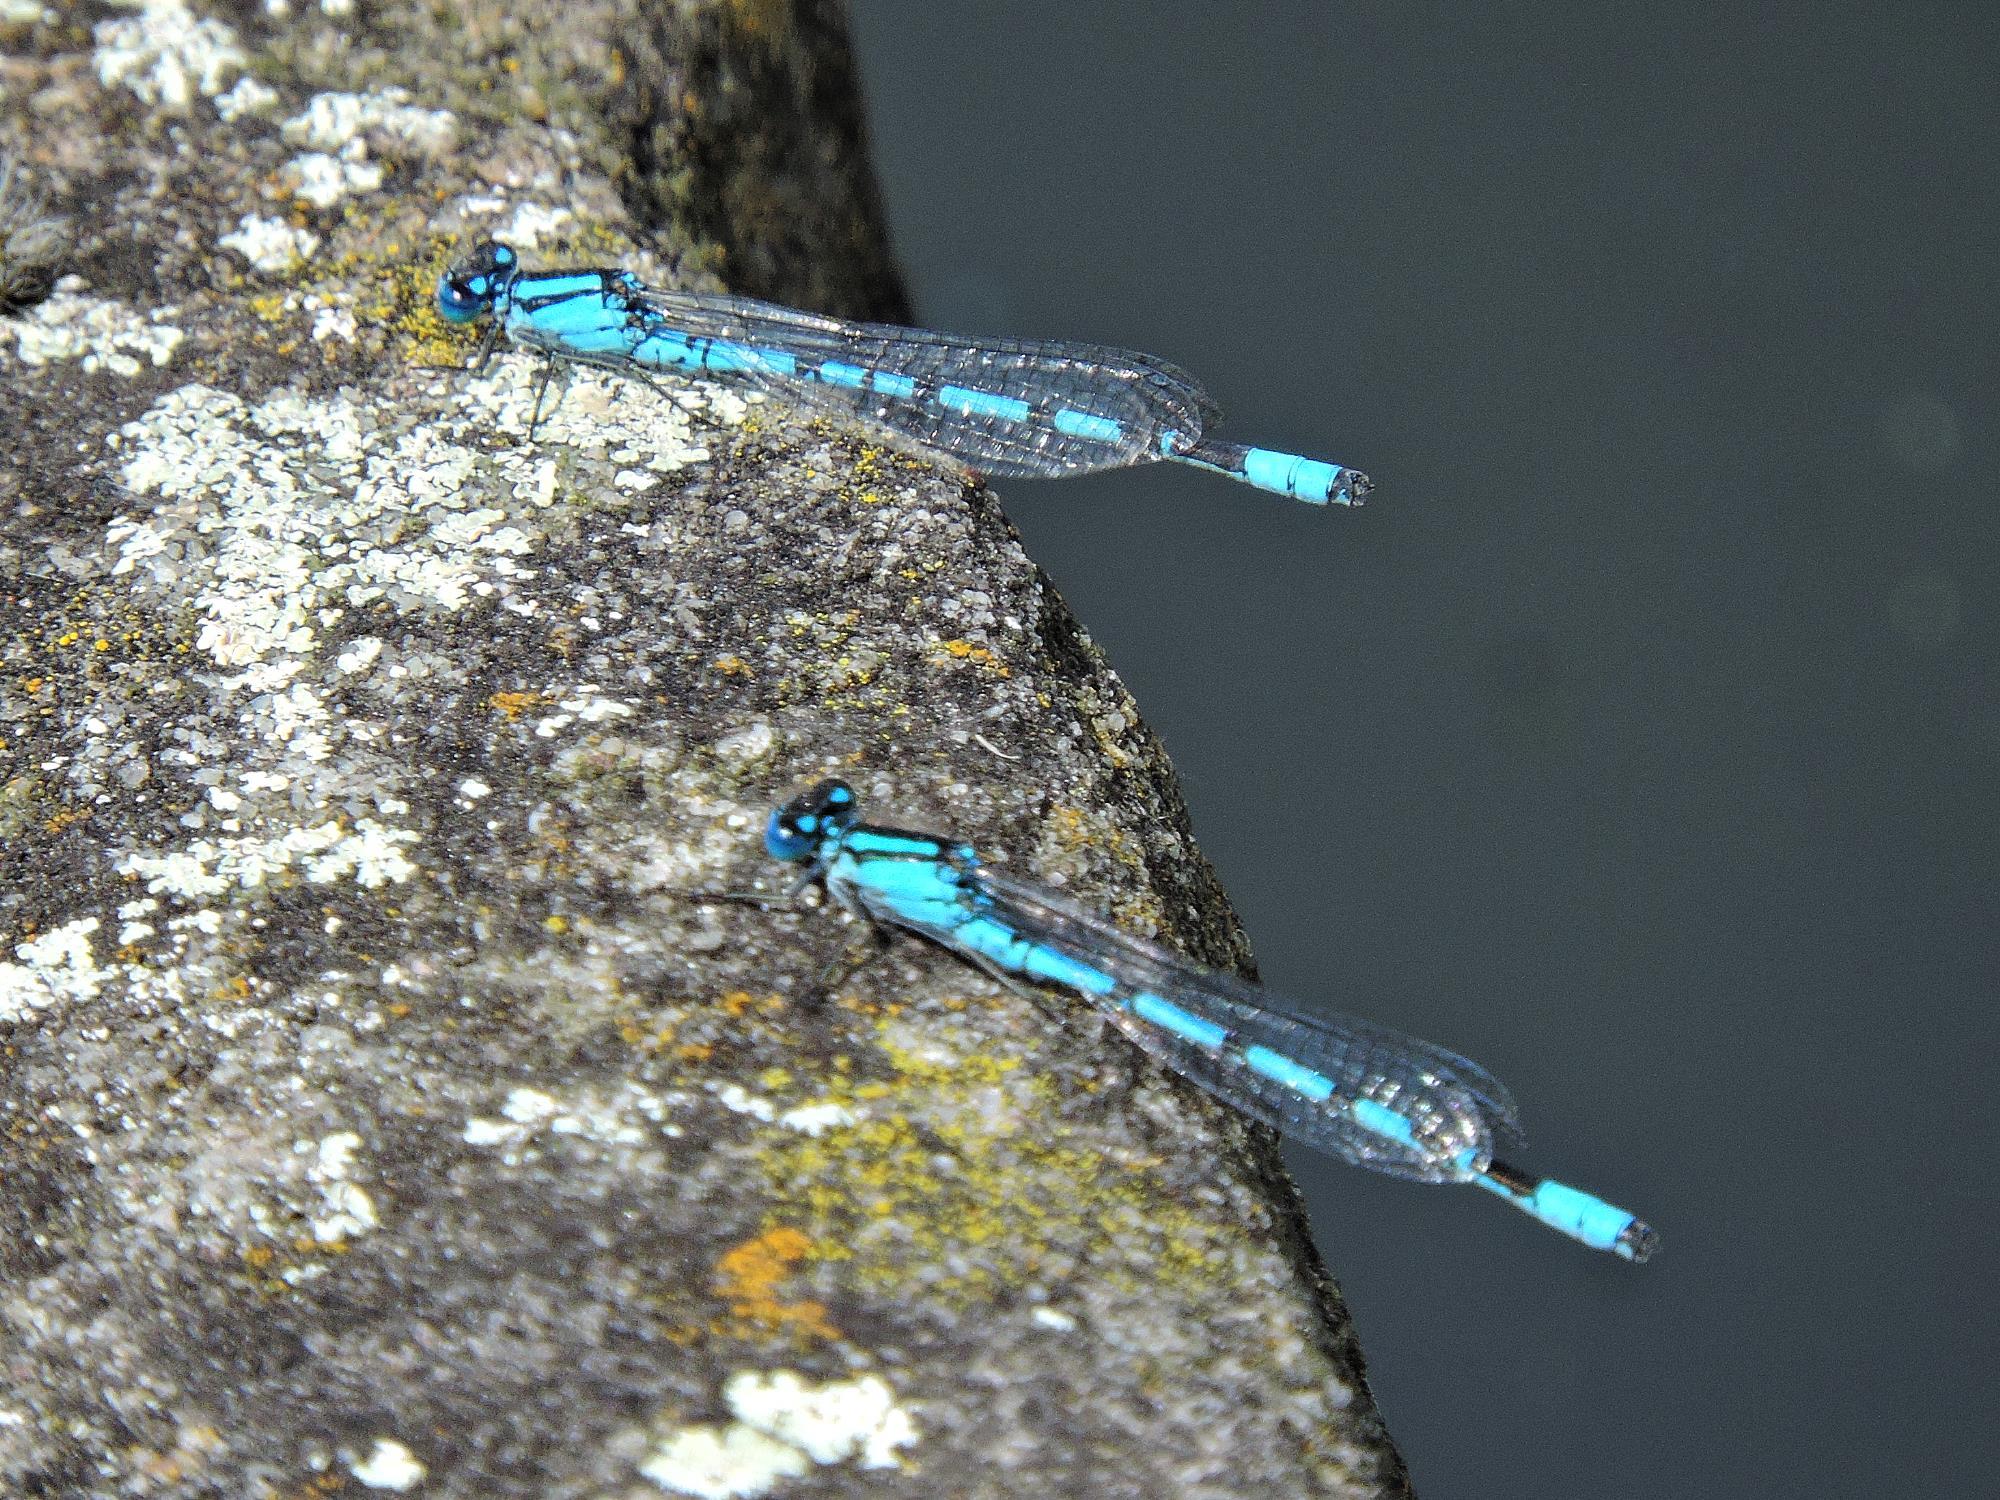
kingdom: Animalia
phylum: Arthropoda
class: Insecta
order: Odonata
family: Coenagrionidae
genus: Enallagma
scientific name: Enallagma cyathigerum
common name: Common blue damselfly
